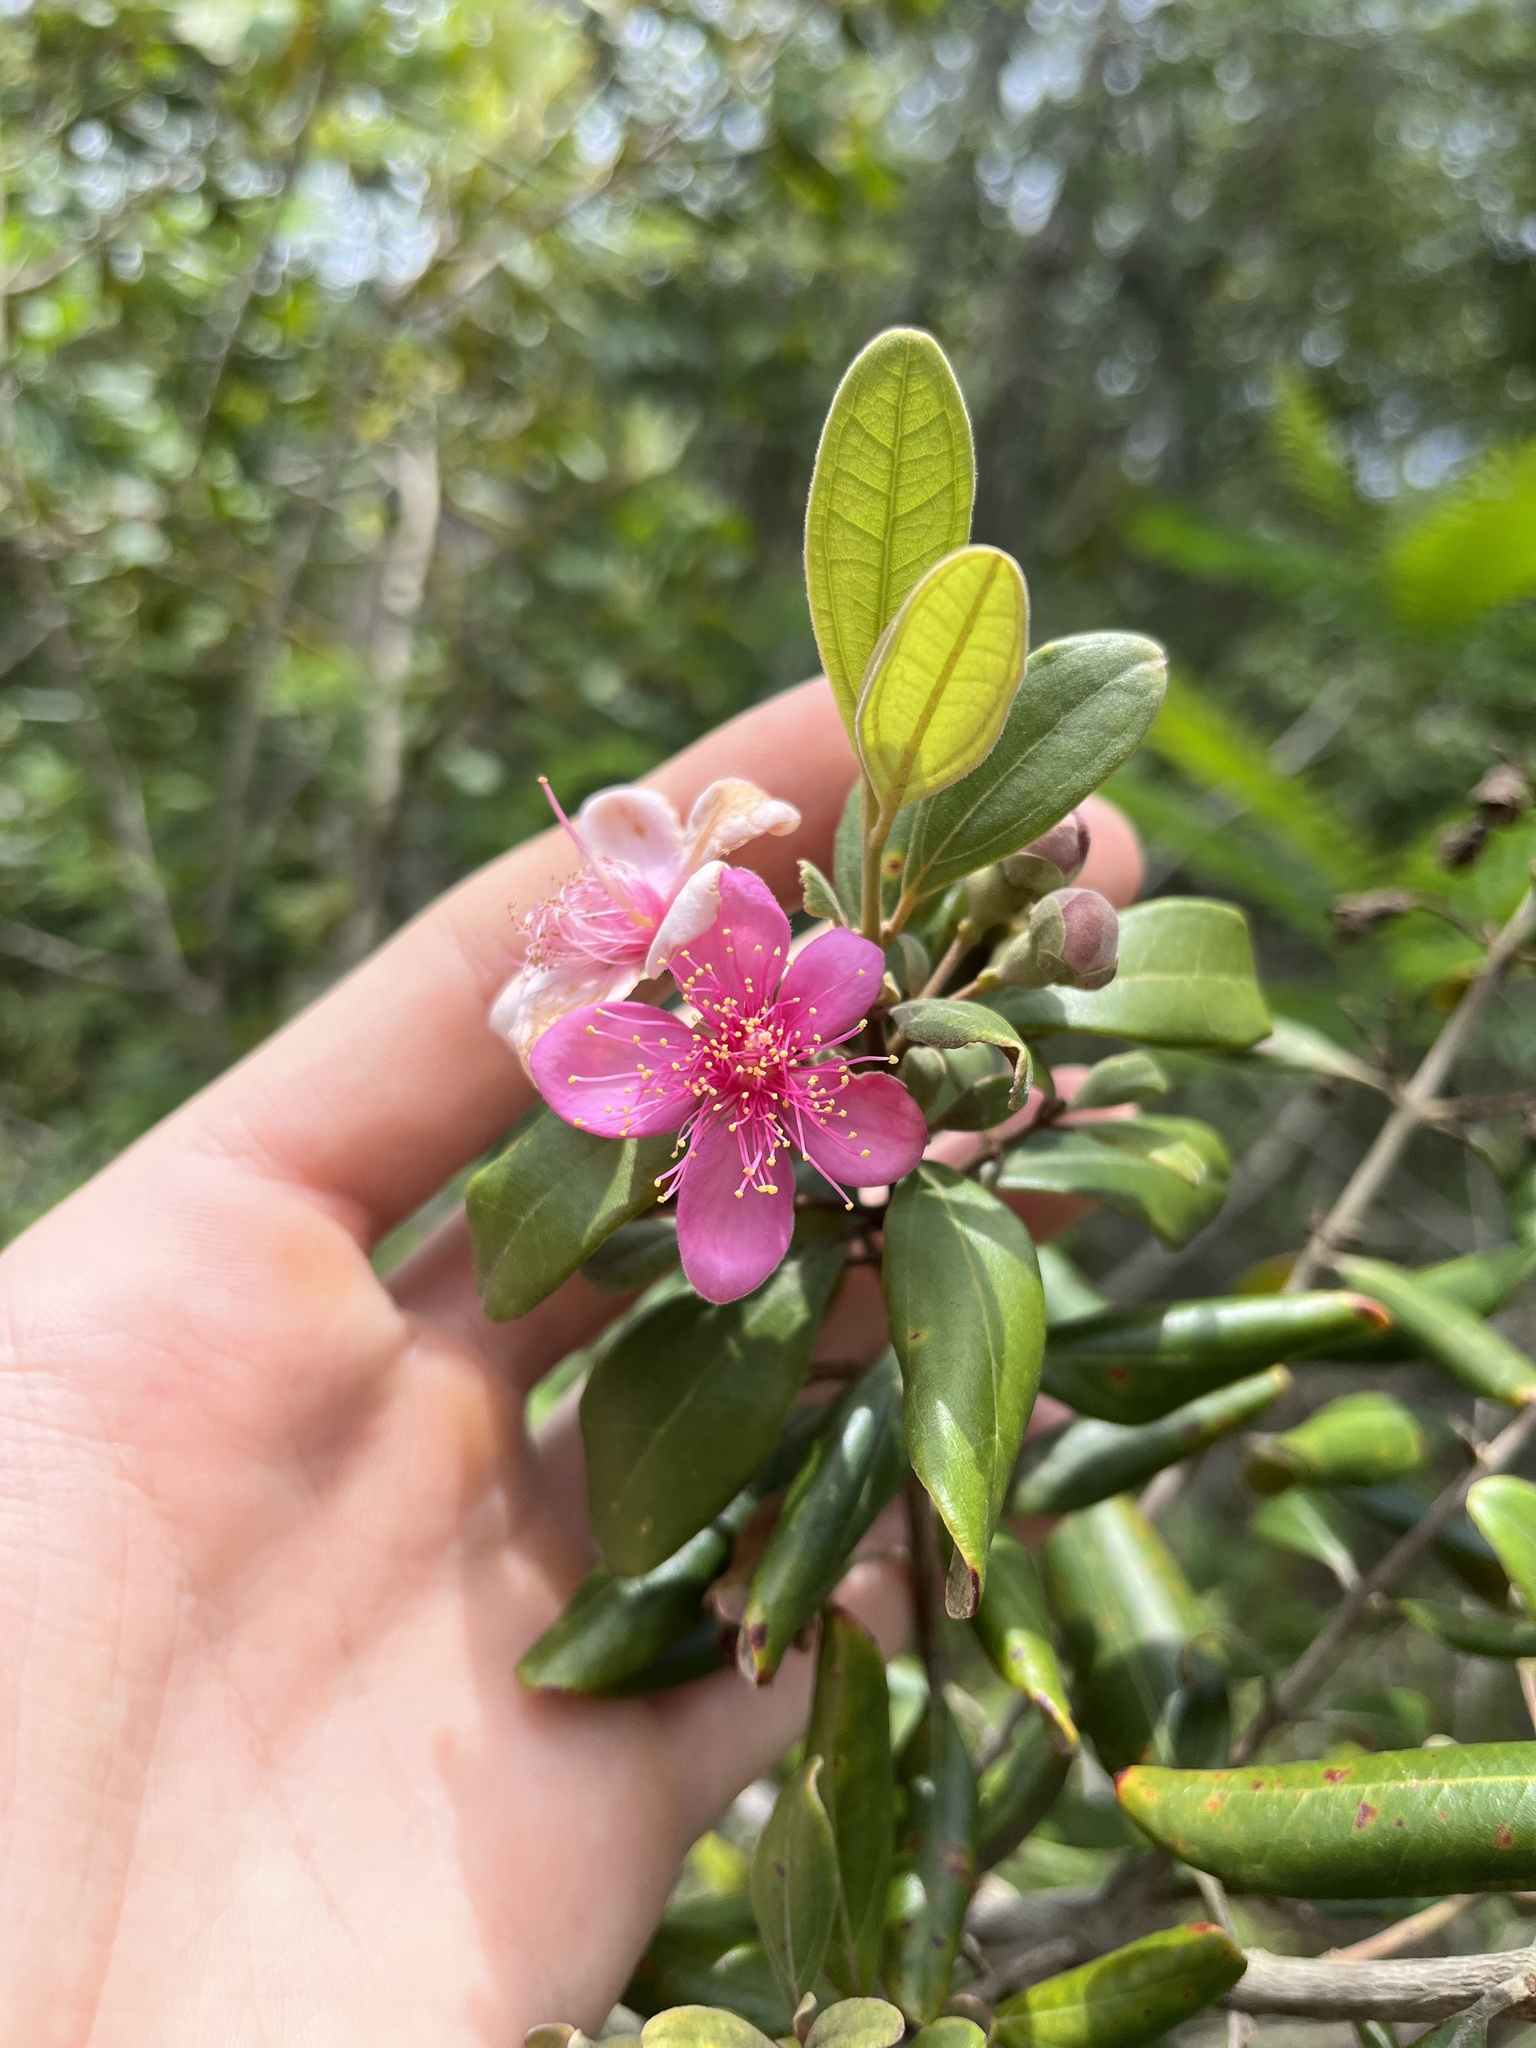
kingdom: Plantae
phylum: Tracheophyta
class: Magnoliopsida
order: Myrtales
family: Myrtaceae
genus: Rhodomyrtus
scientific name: Rhodomyrtus tomentosa
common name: Rose myrtle
